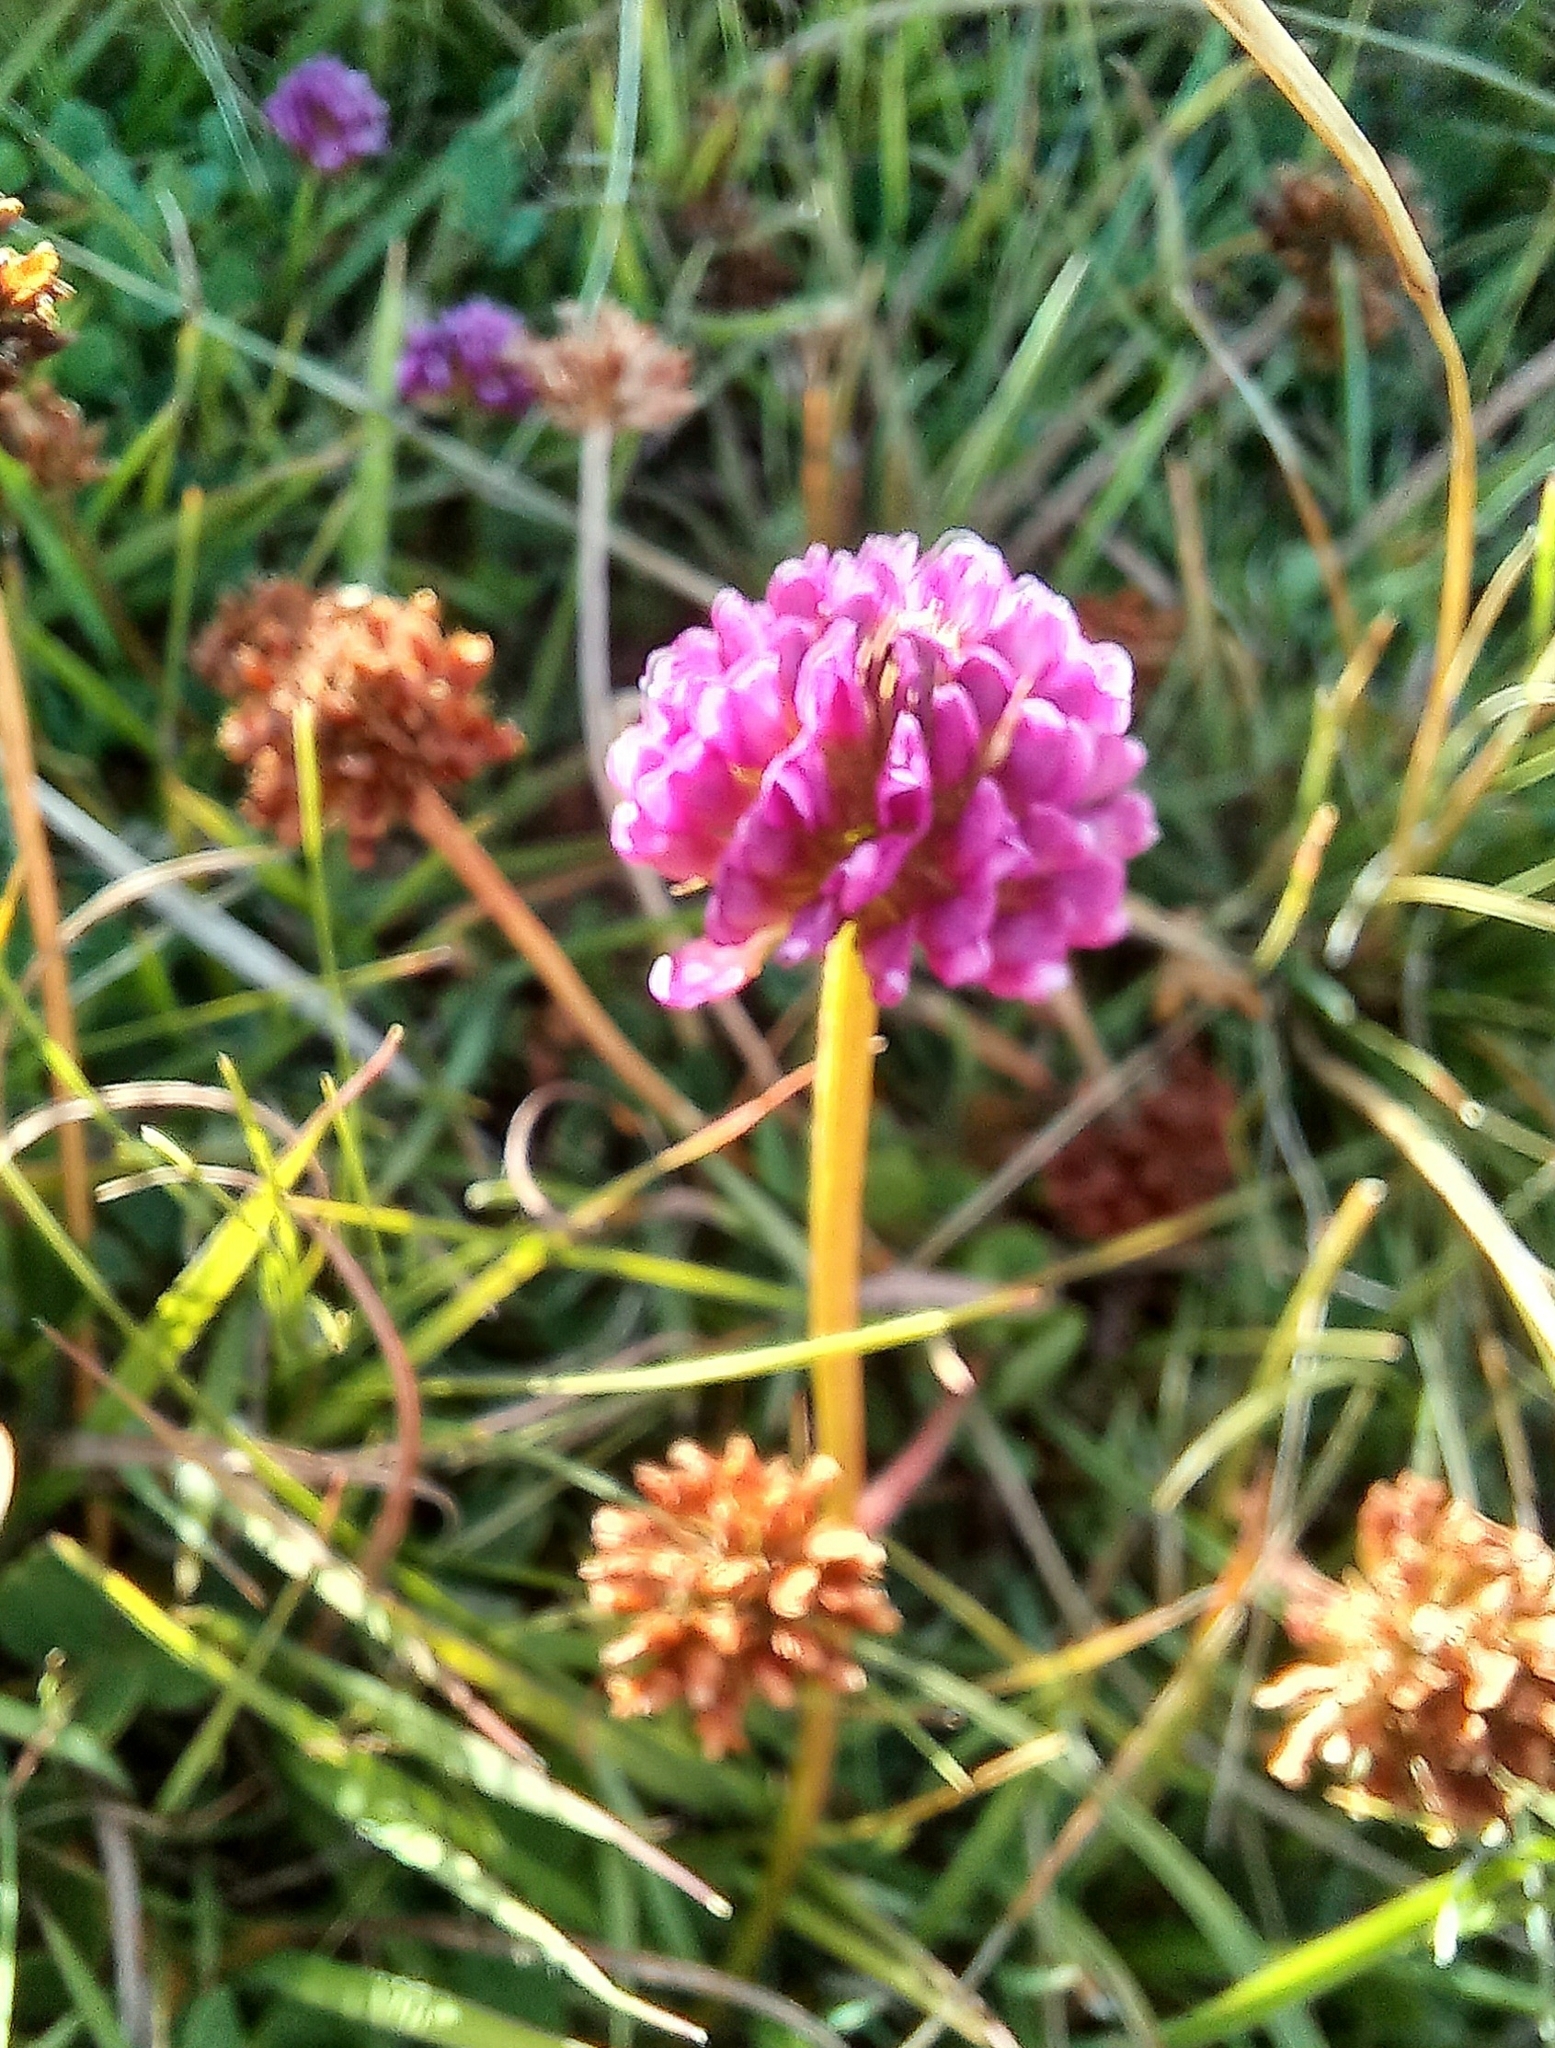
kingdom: Plantae
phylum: Tracheophyta
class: Magnoliopsida
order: Fabales
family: Fabaceae
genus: Trifolium
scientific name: Trifolium burchellianum
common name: Burchell's clover
